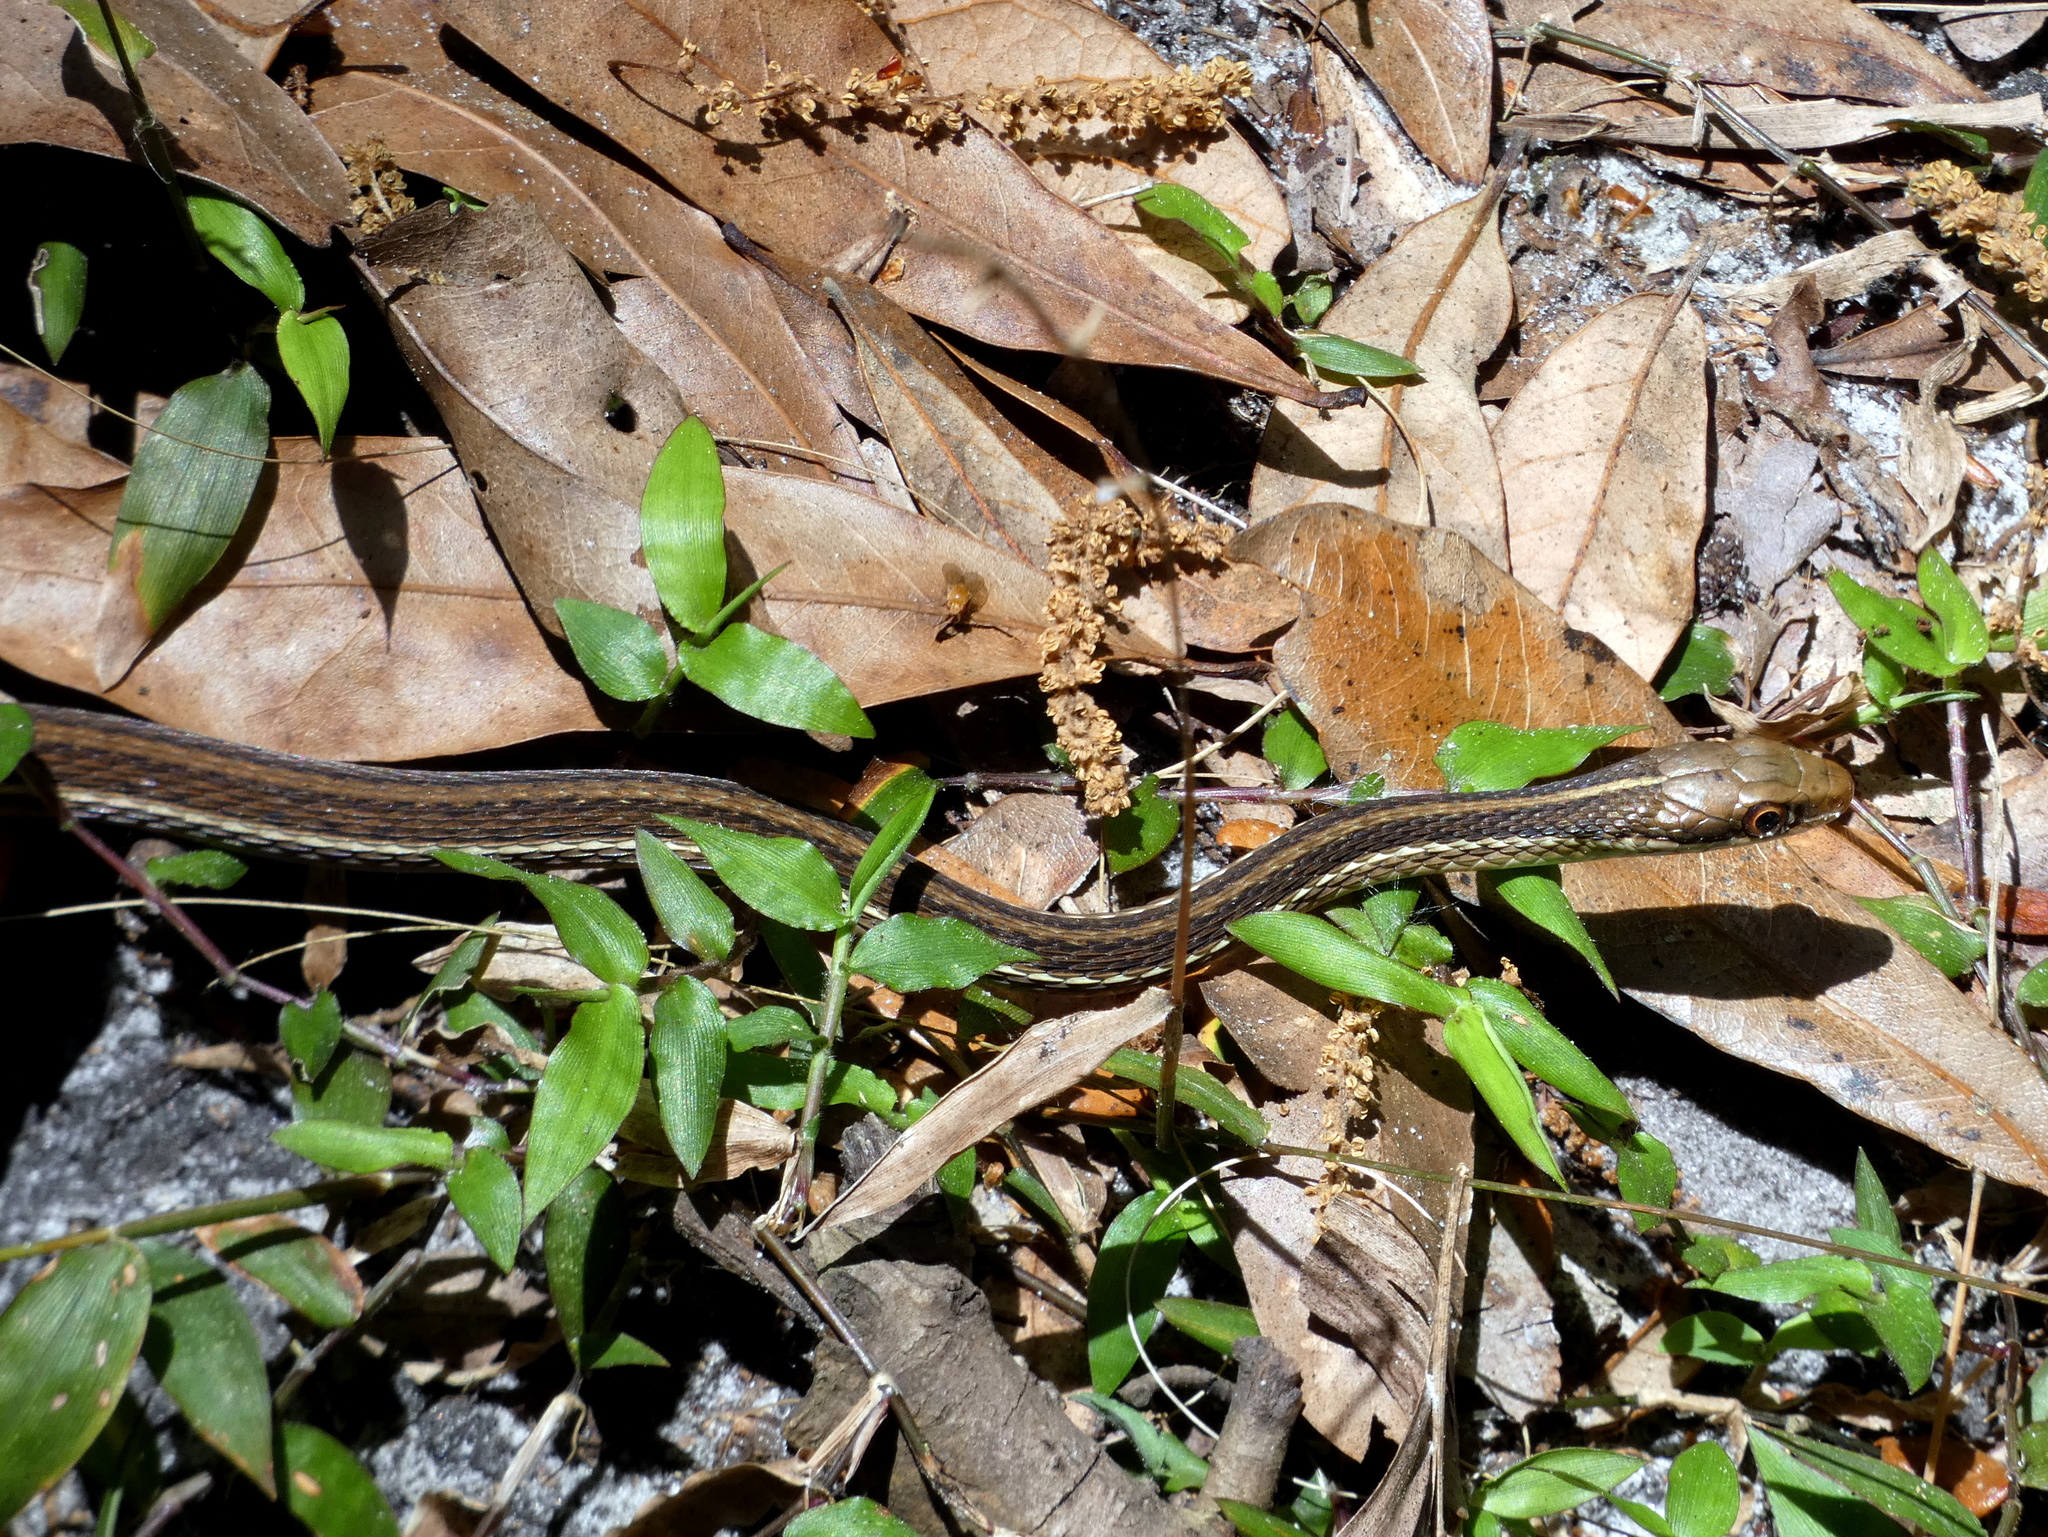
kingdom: Animalia
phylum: Chordata
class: Squamata
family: Colubridae
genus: Thamnophis
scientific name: Thamnophis saurita
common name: Eastern ribbonsnake
